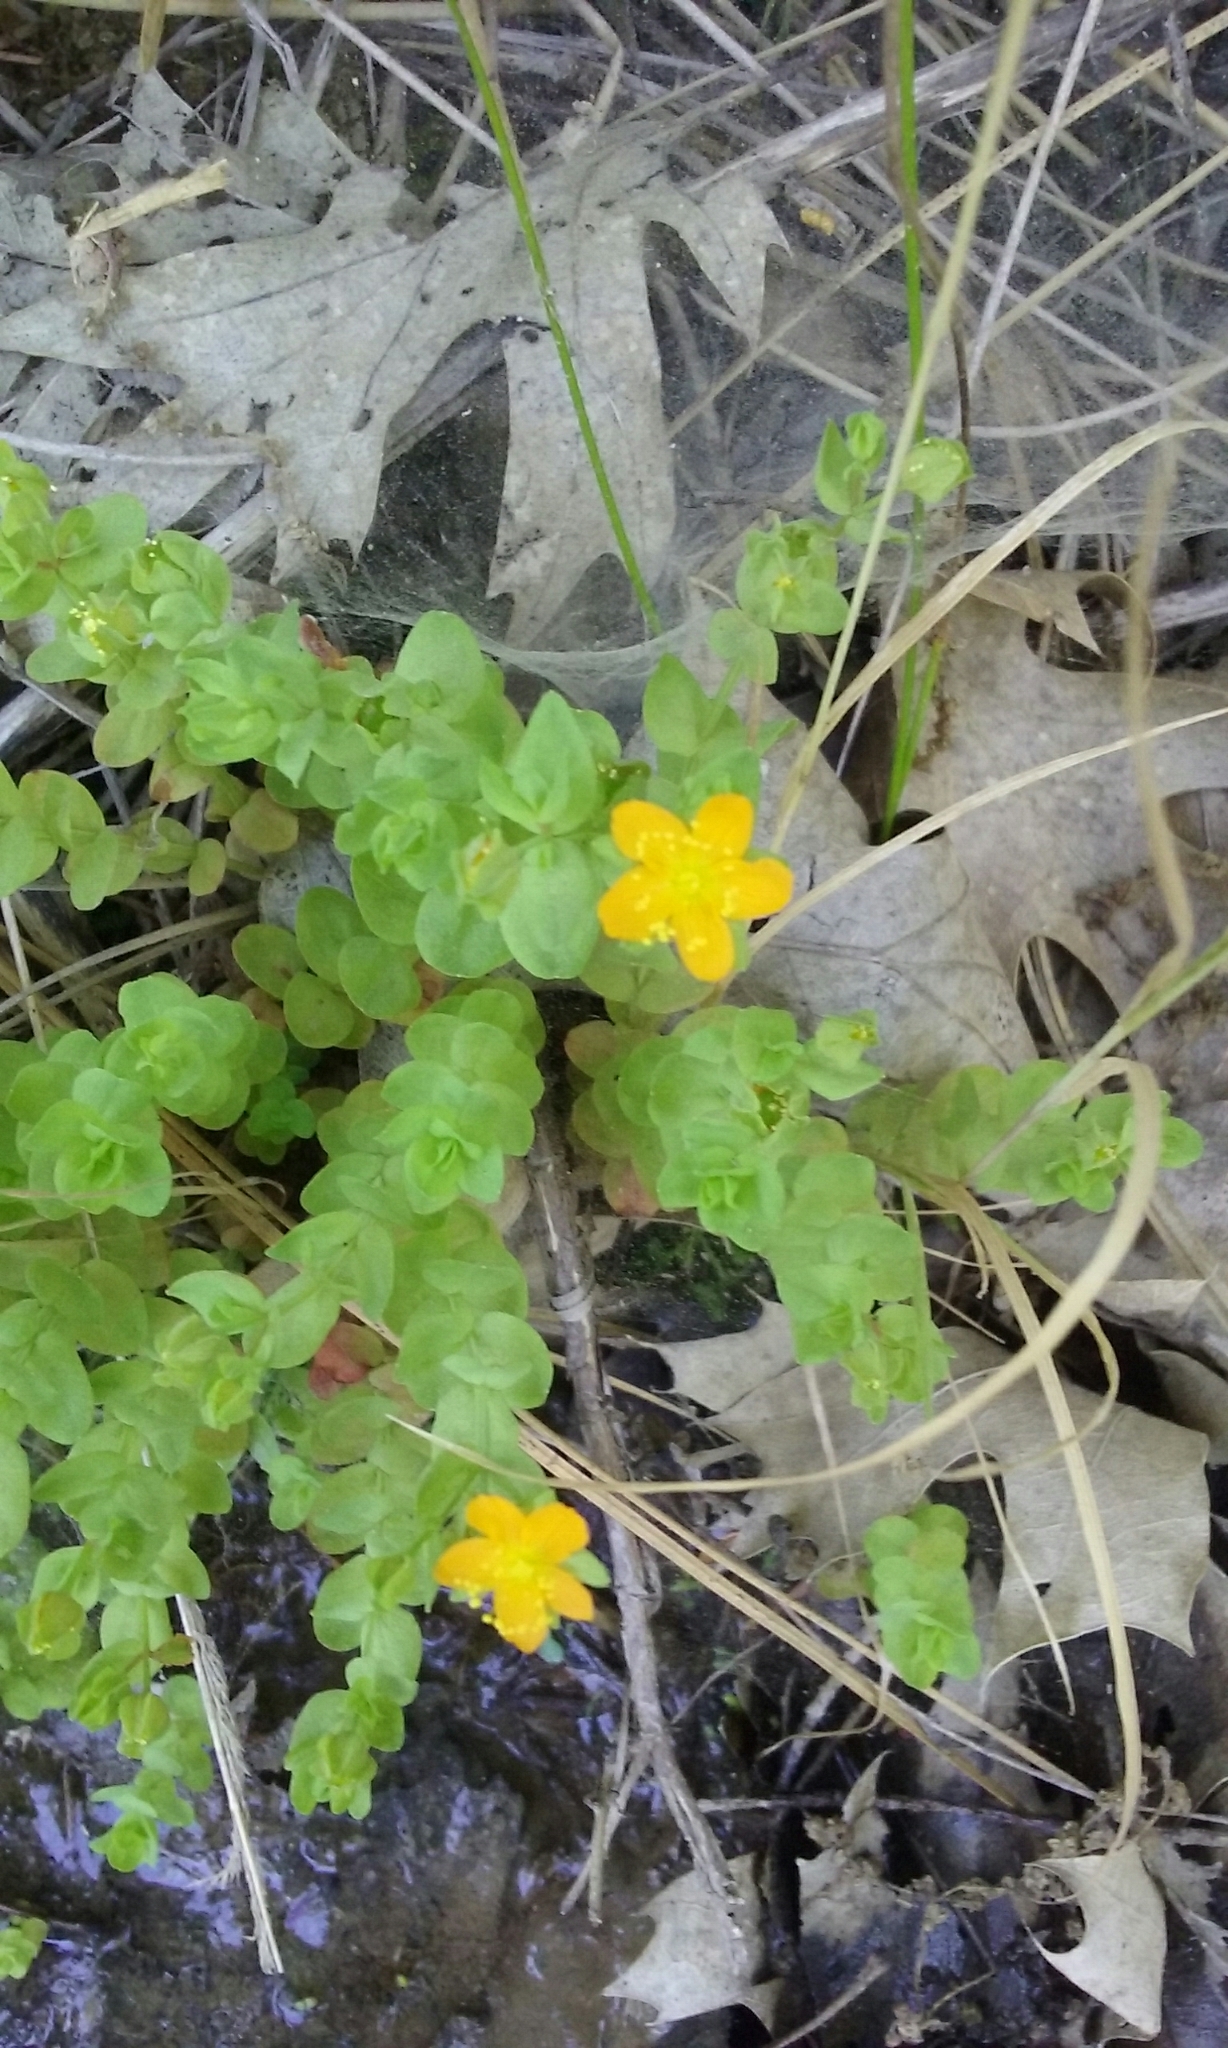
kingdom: Plantae
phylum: Tracheophyta
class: Magnoliopsida
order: Malpighiales
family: Hypericaceae
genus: Hypericum
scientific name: Hypericum anagalloides
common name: Bog st. john's-wort
